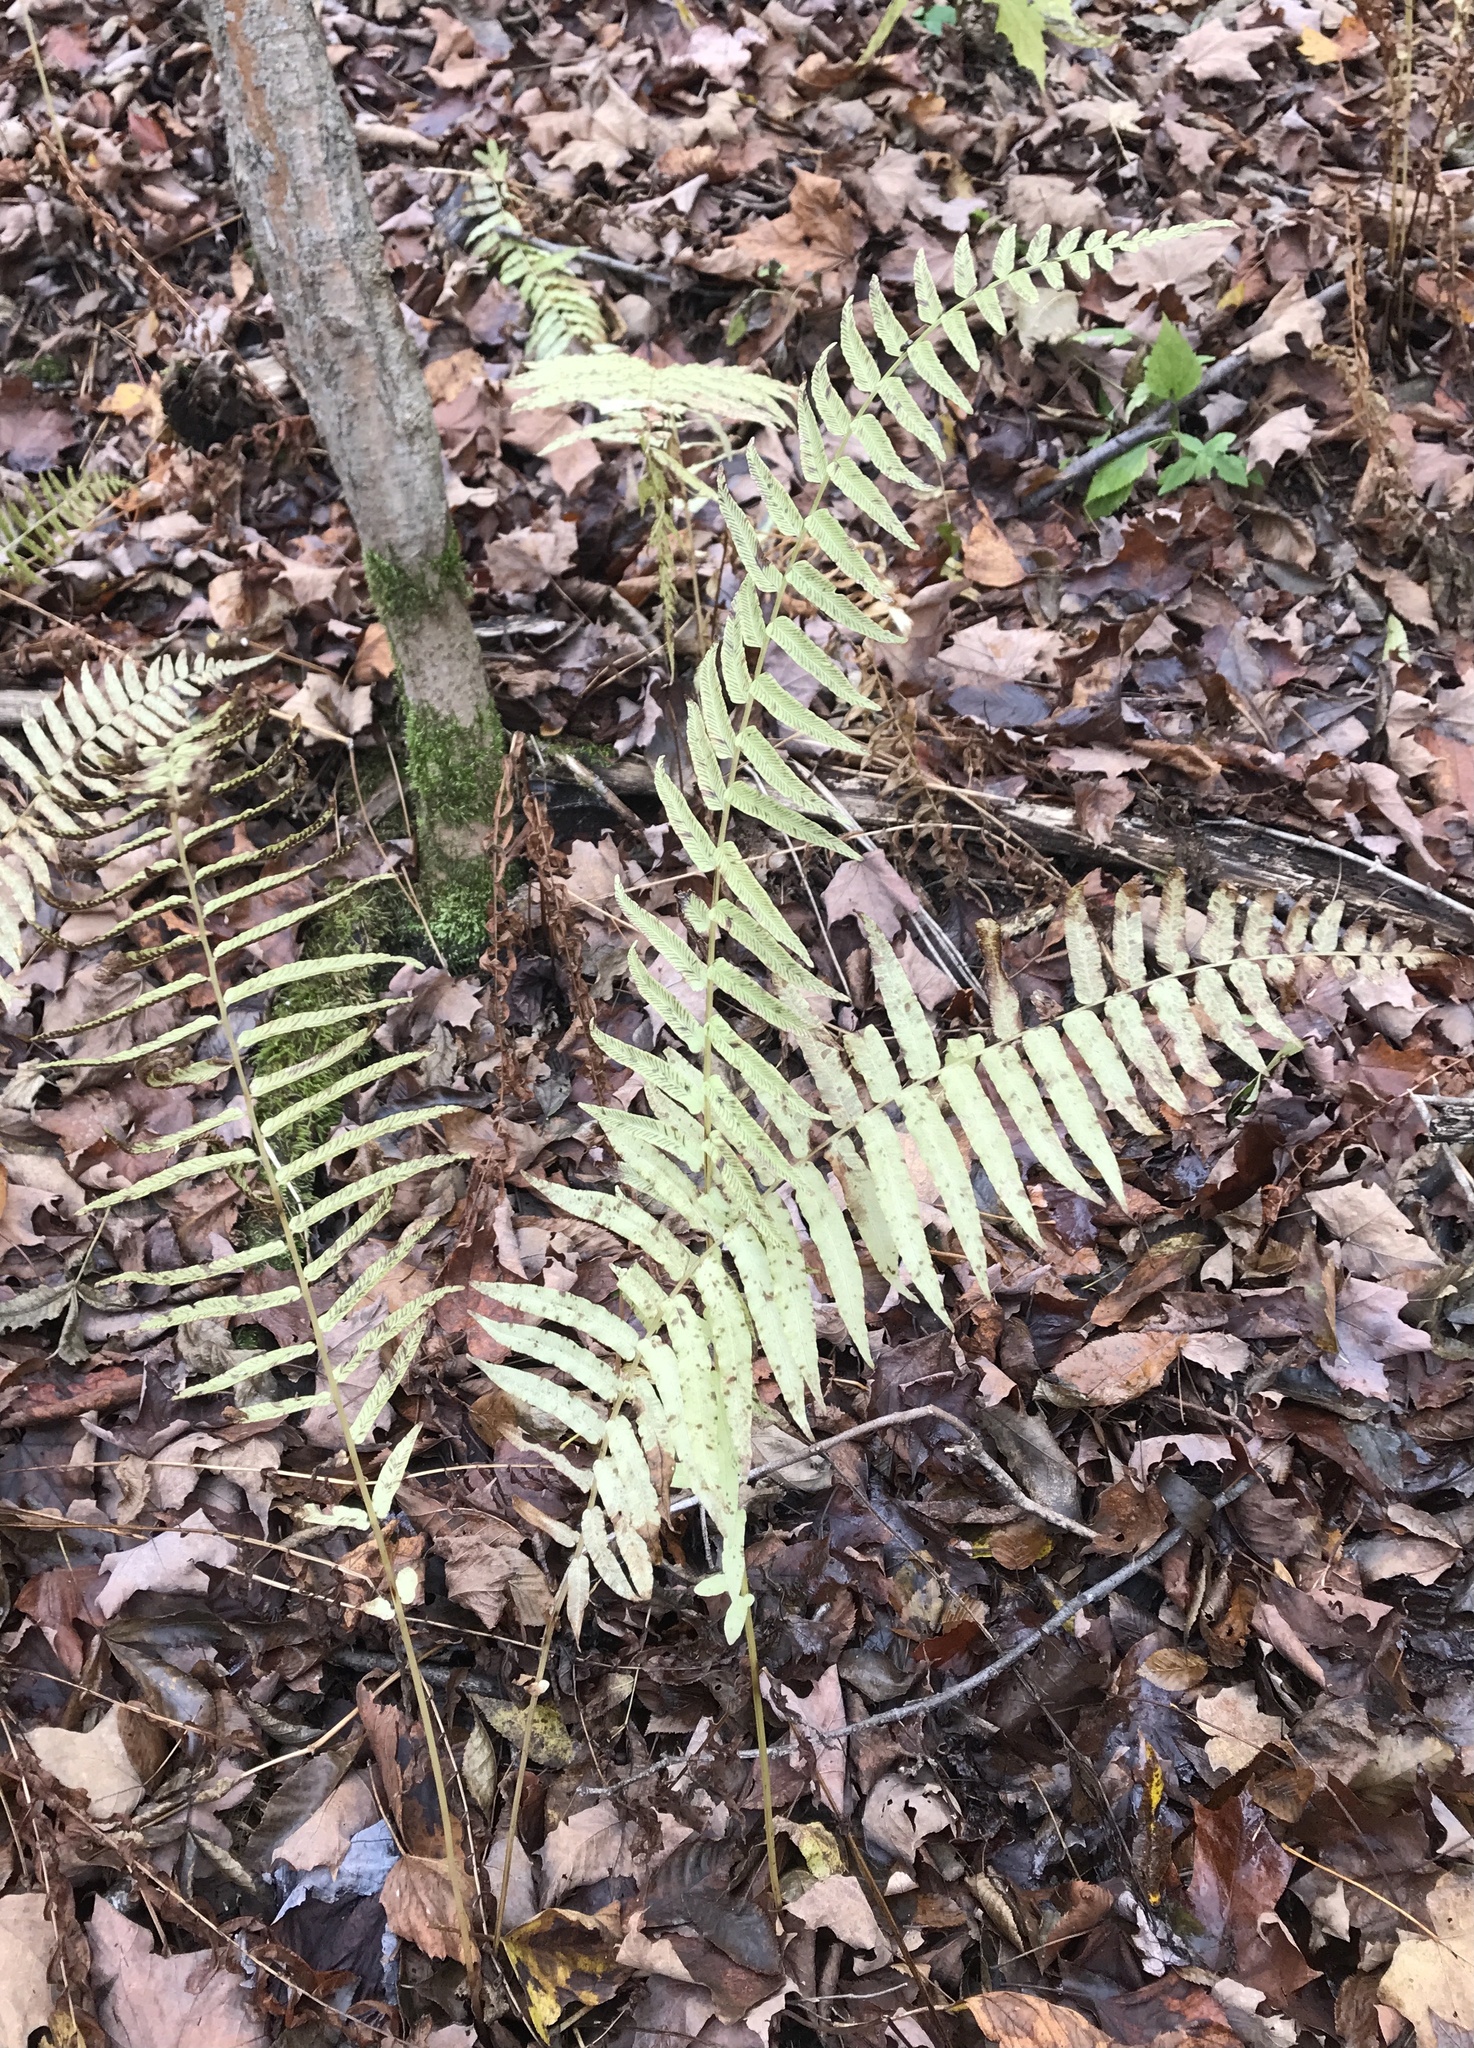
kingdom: Plantae
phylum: Tracheophyta
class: Polypodiopsida
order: Polypodiales
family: Diplaziopsidaceae
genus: Homalosorus
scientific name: Homalosorus pycnocarpos
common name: Glade fern
